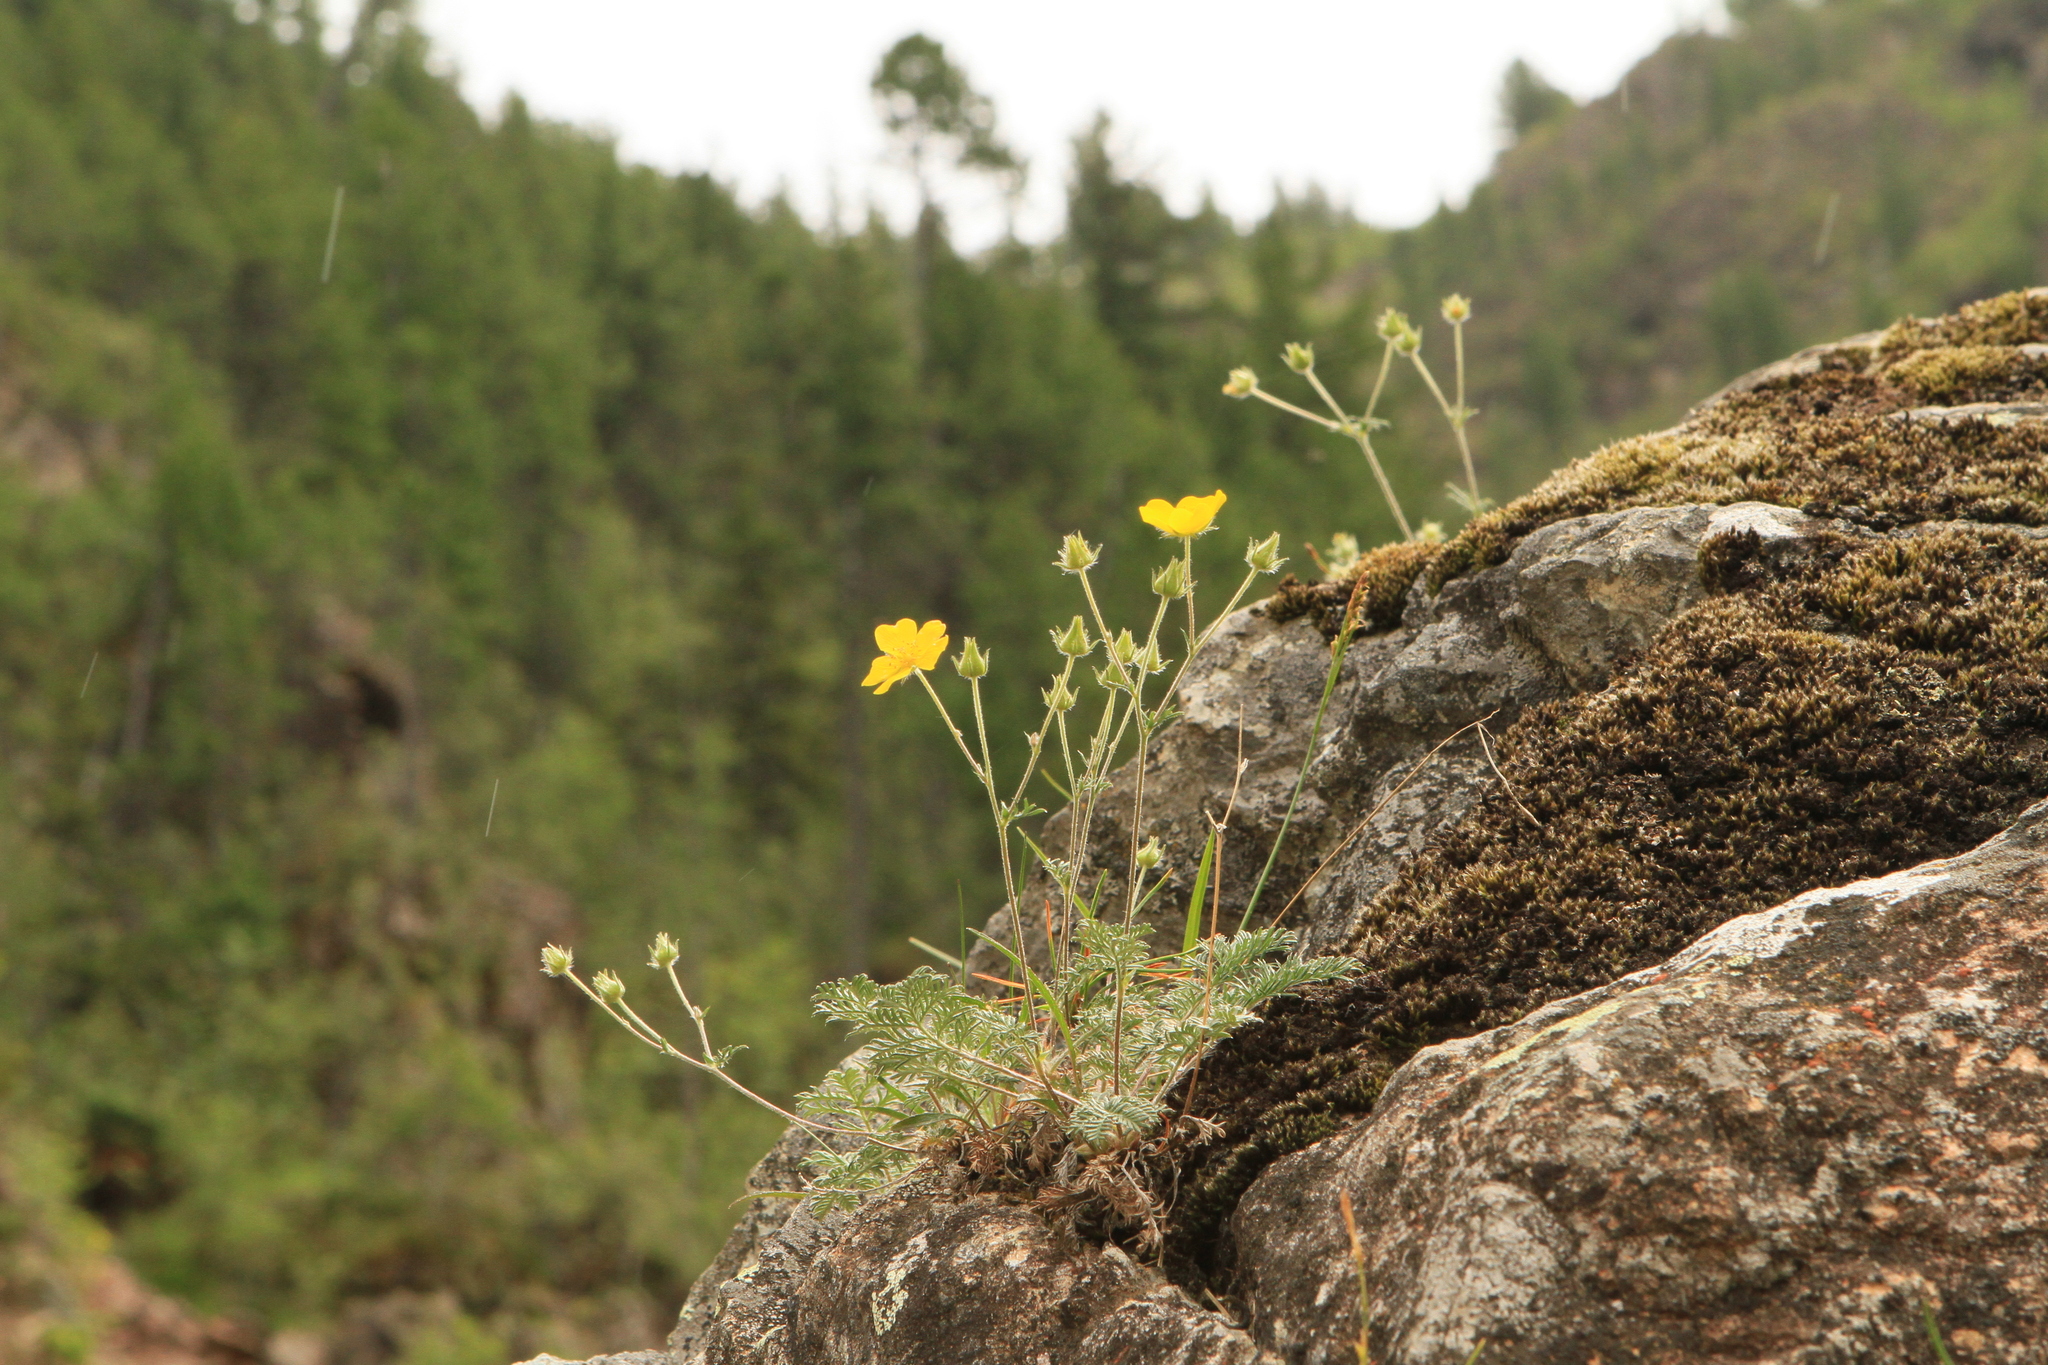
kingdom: Plantae
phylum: Tracheophyta
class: Magnoliopsida
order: Rosales
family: Rosaceae
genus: Potentilla
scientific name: Potentilla sericea
